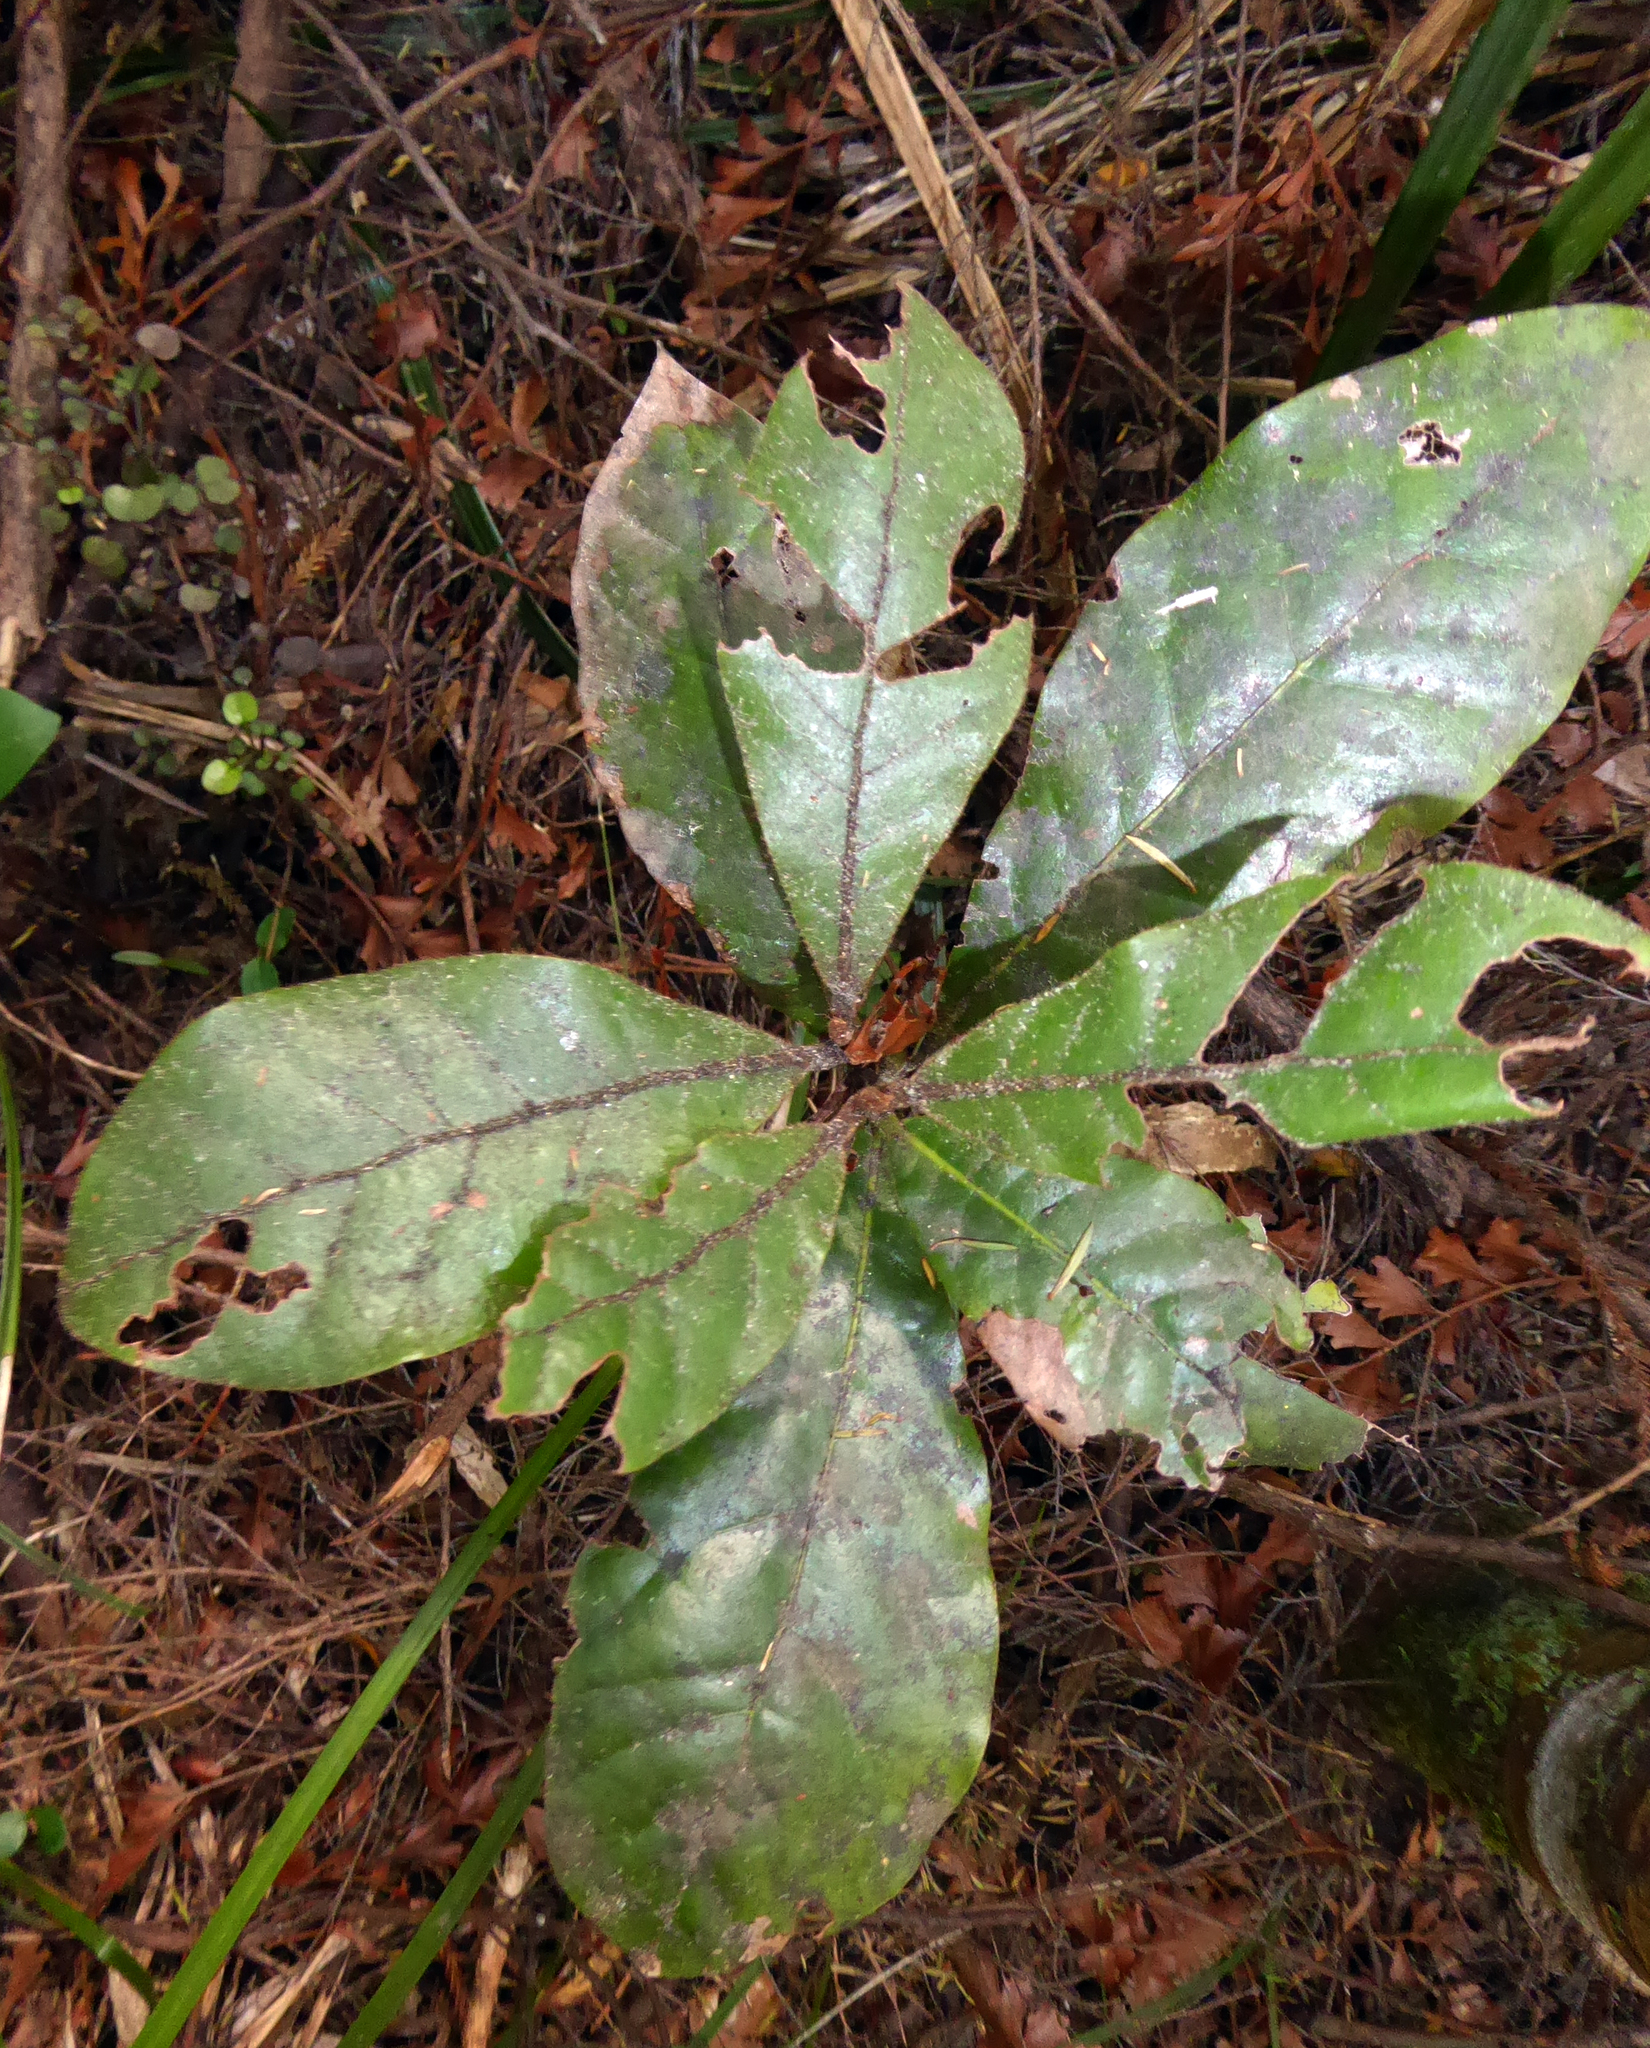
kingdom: Plantae
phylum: Tracheophyta
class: Magnoliopsida
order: Laurales
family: Lauraceae
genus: Beilschmiedia
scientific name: Beilschmiedia tarairi
